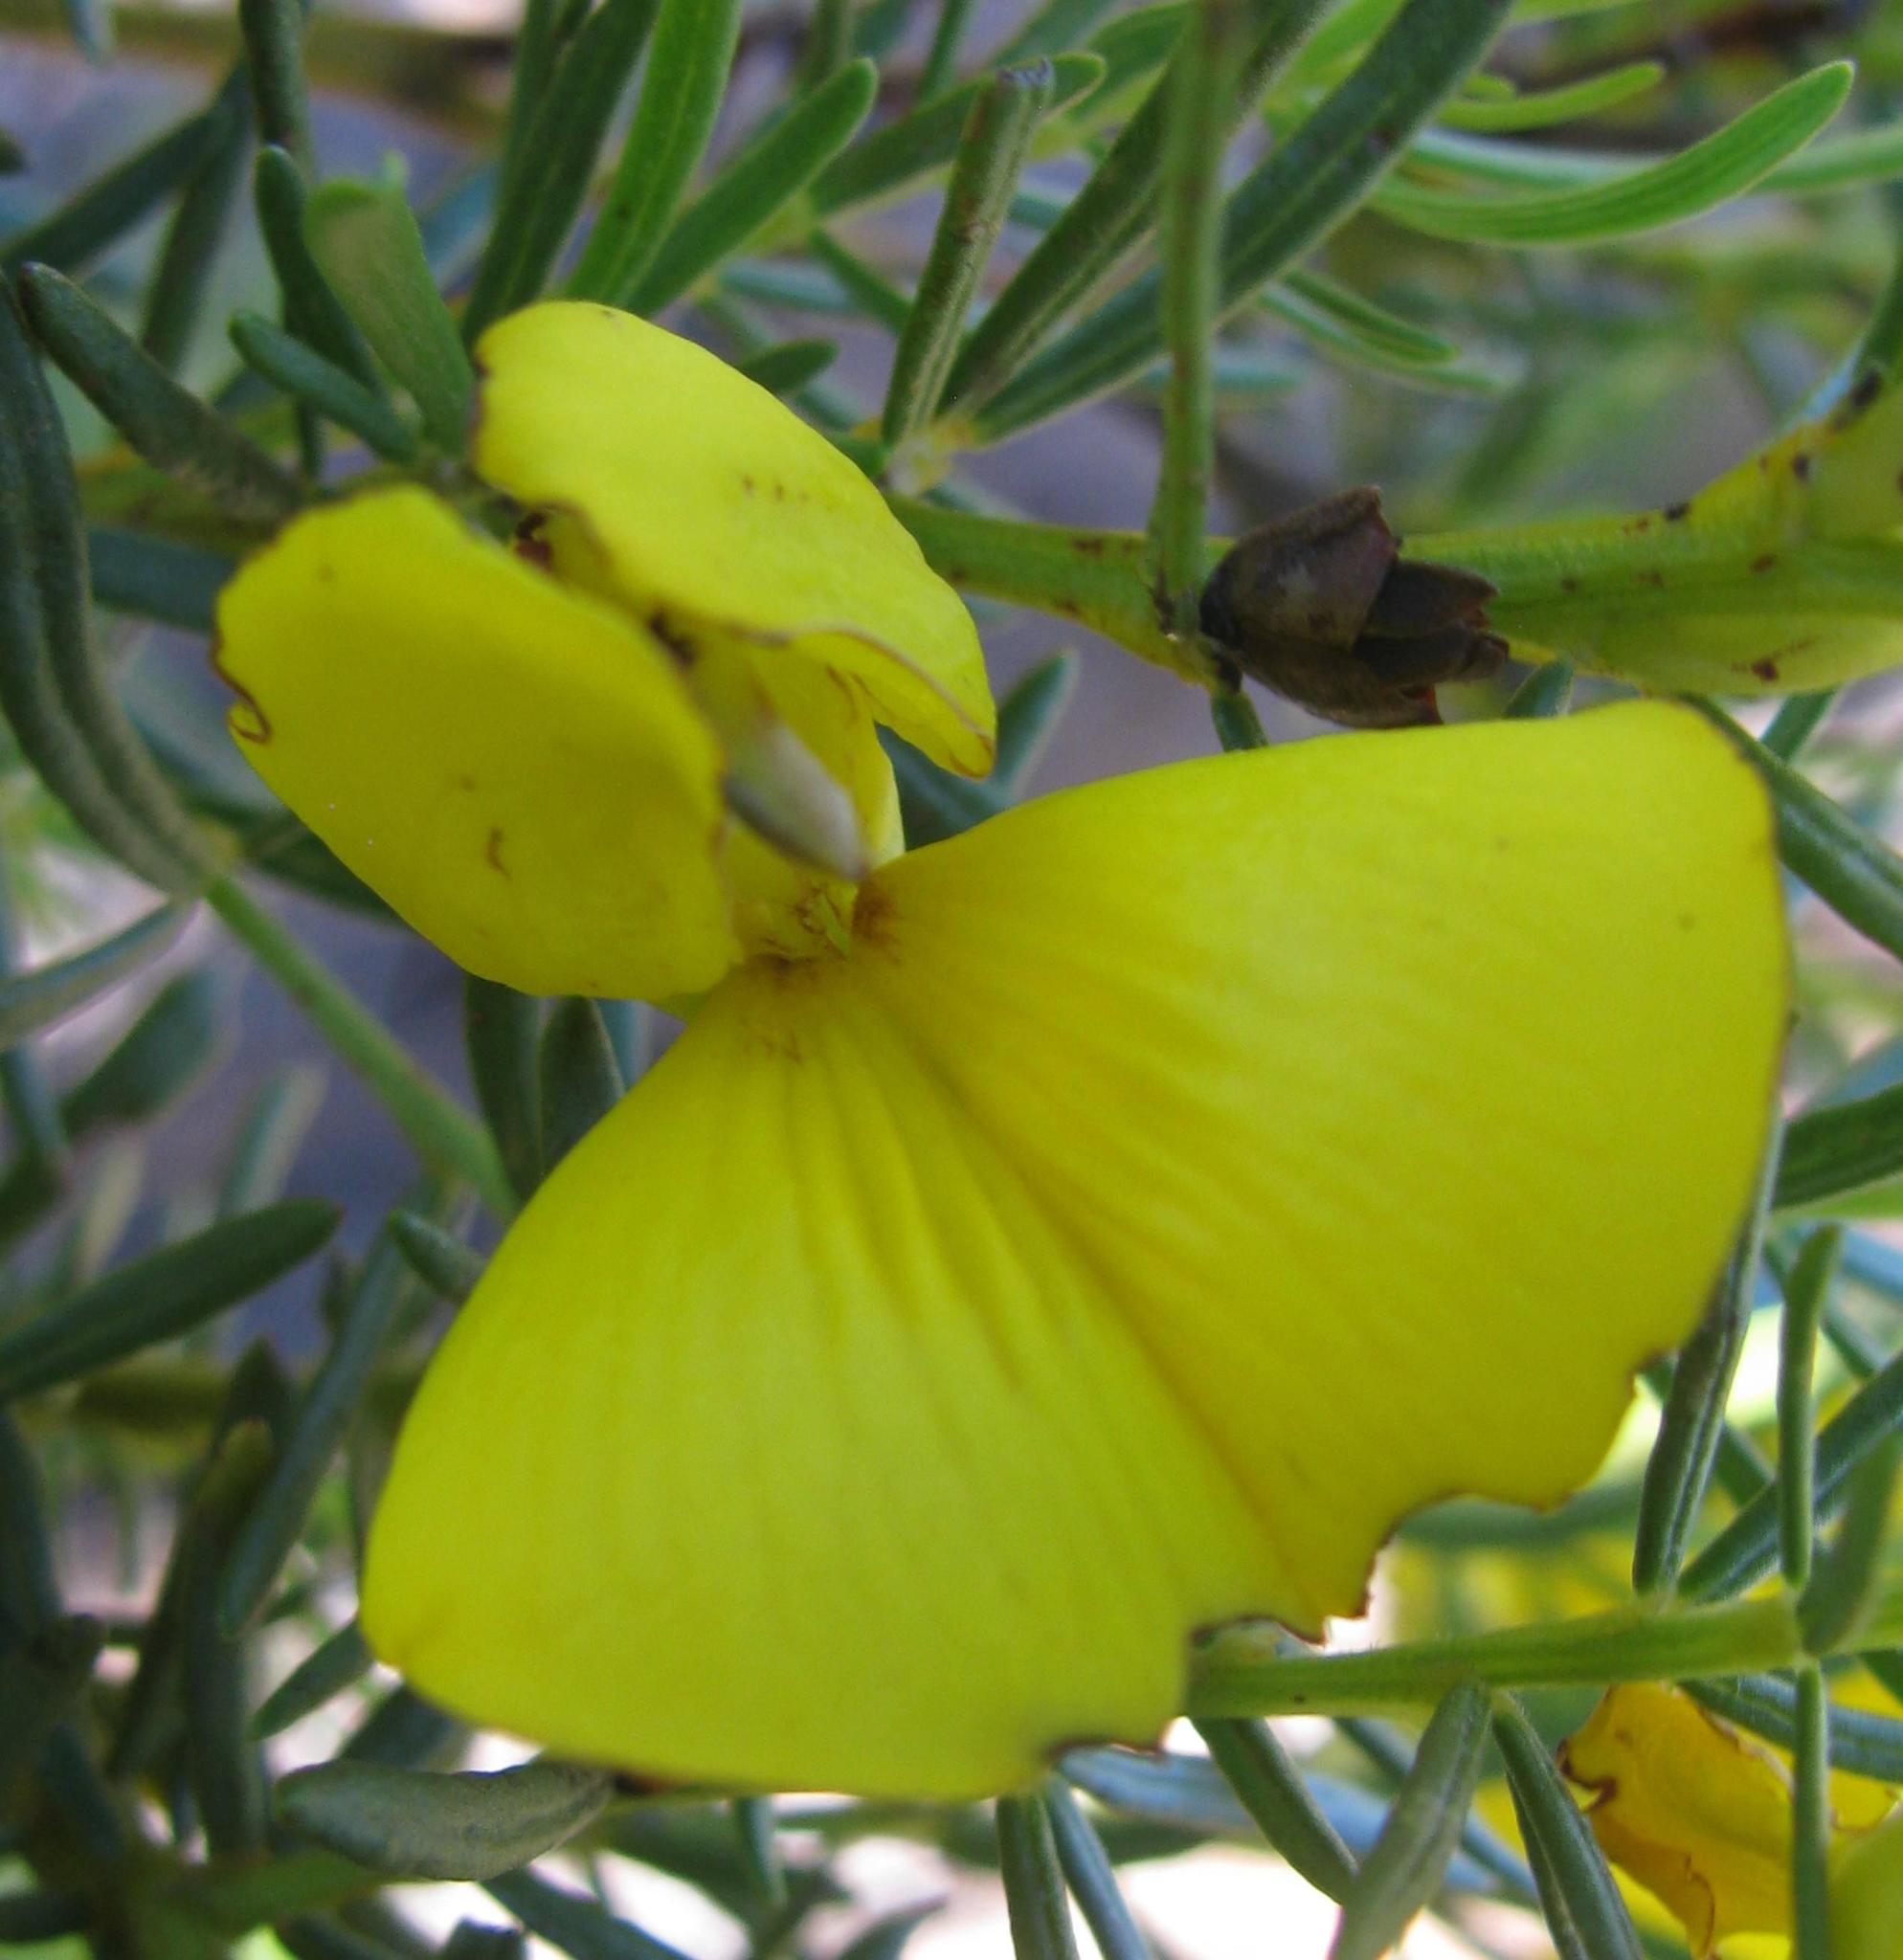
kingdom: Plantae
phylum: Tracheophyta
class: Magnoliopsida
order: Fabales
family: Fabaceae
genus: Cyclopia
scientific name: Cyclopia maculata
